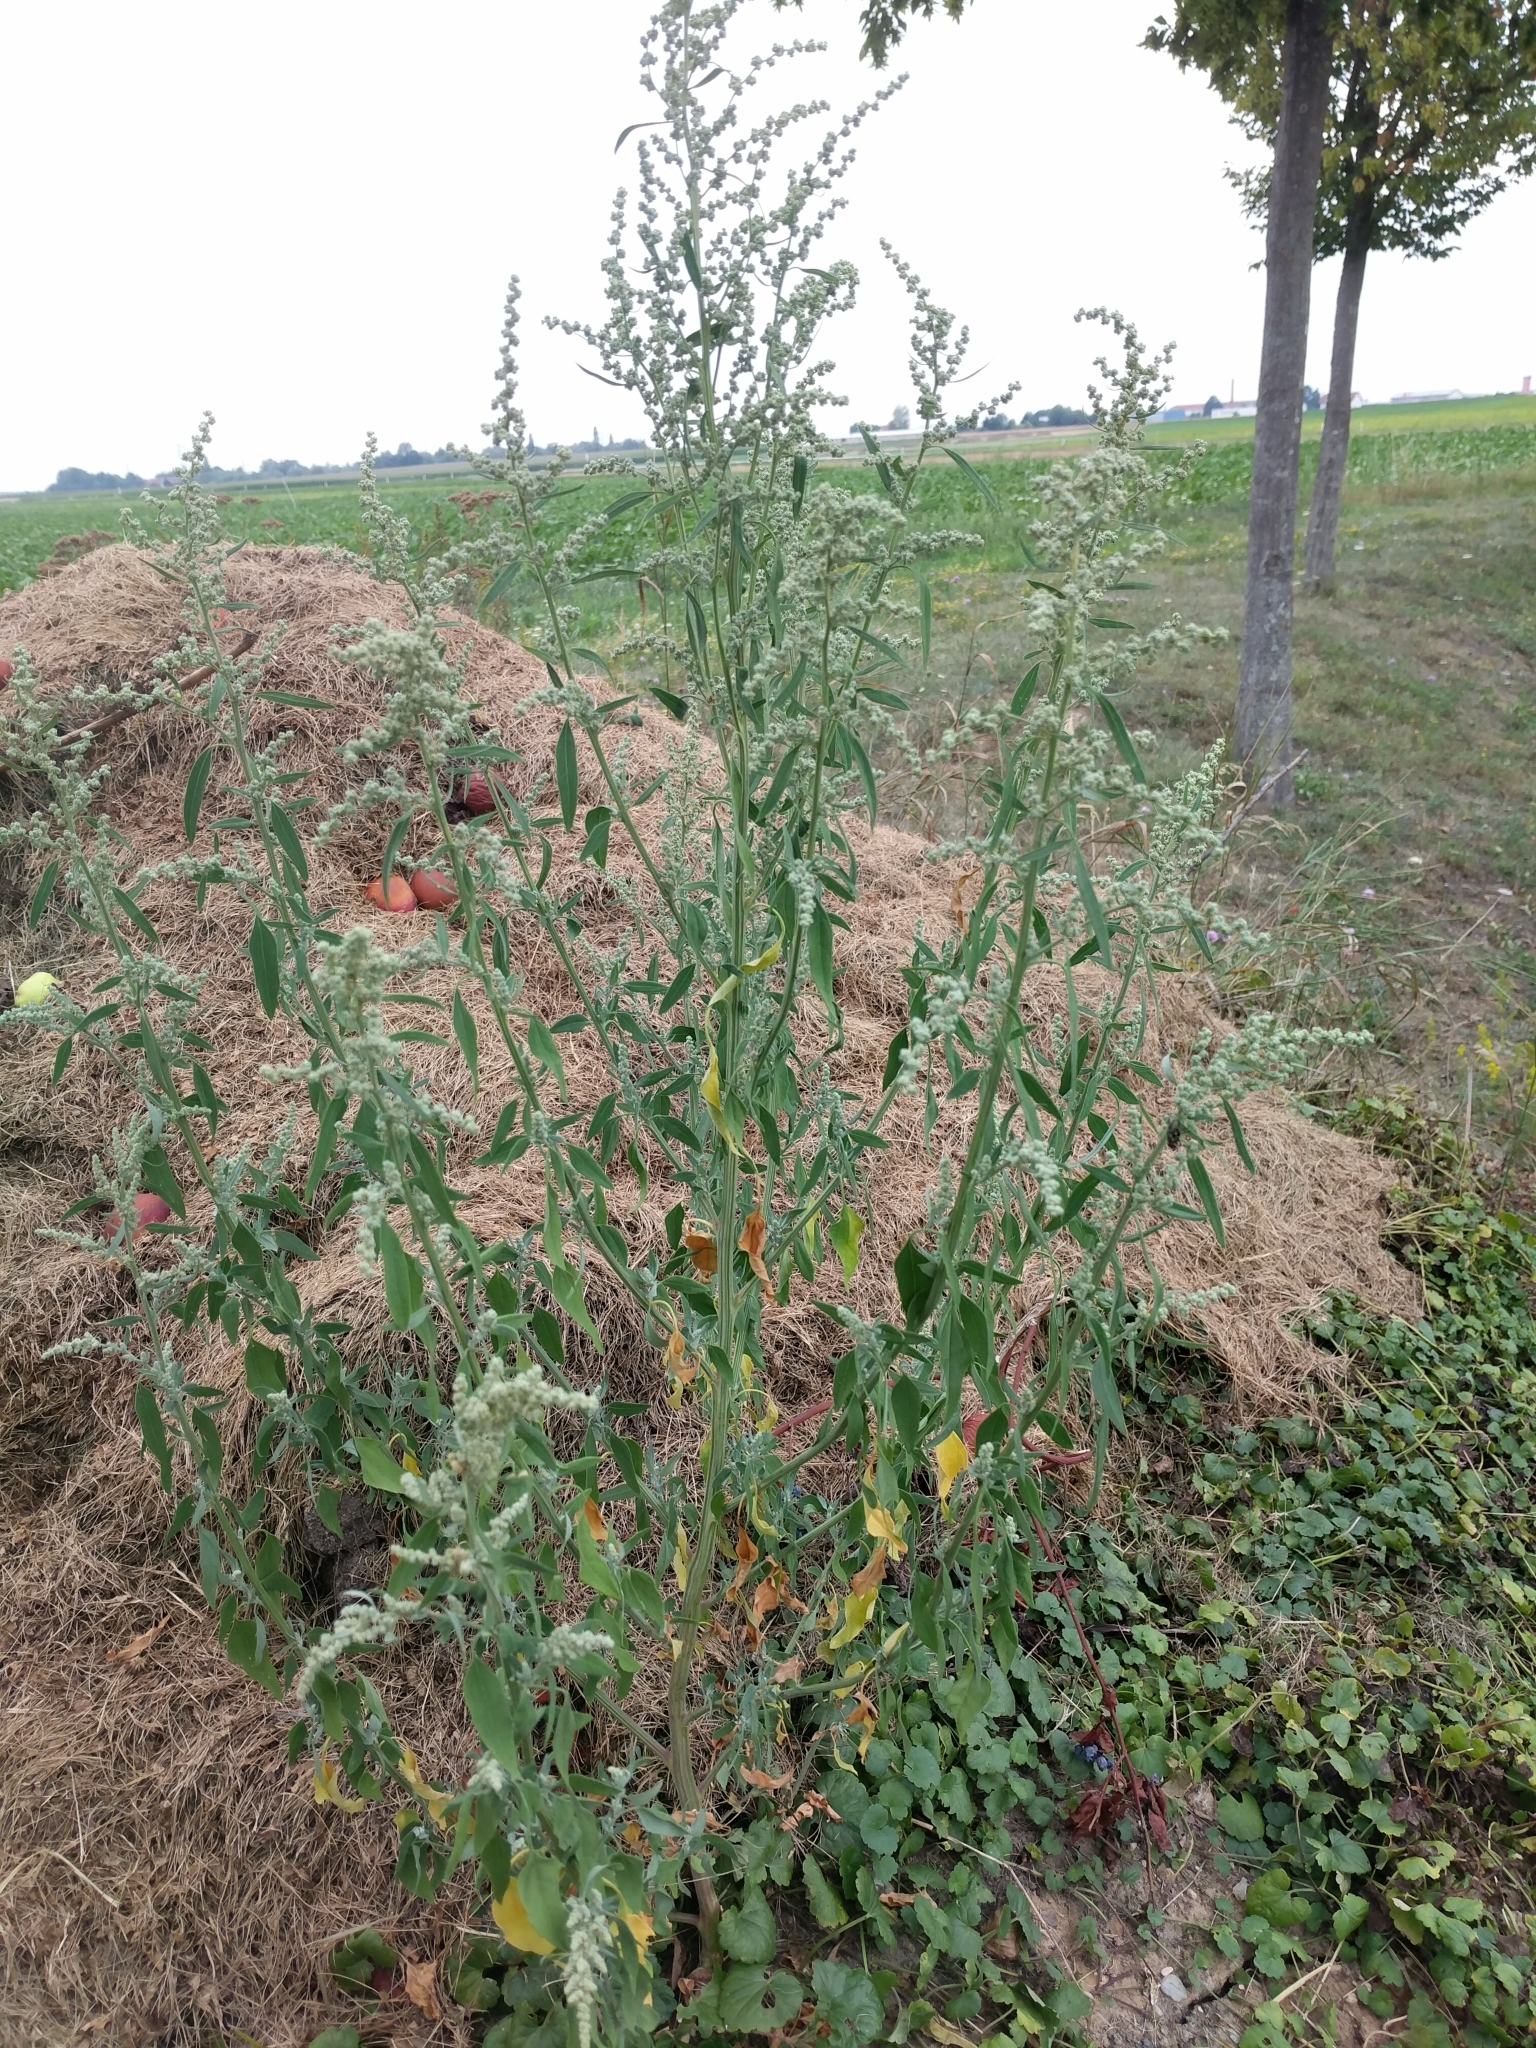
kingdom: Plantae
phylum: Tracheophyta
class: Magnoliopsida
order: Caryophyllales
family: Amaranthaceae
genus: Chenopodium
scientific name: Chenopodium album
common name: Fat-hen
